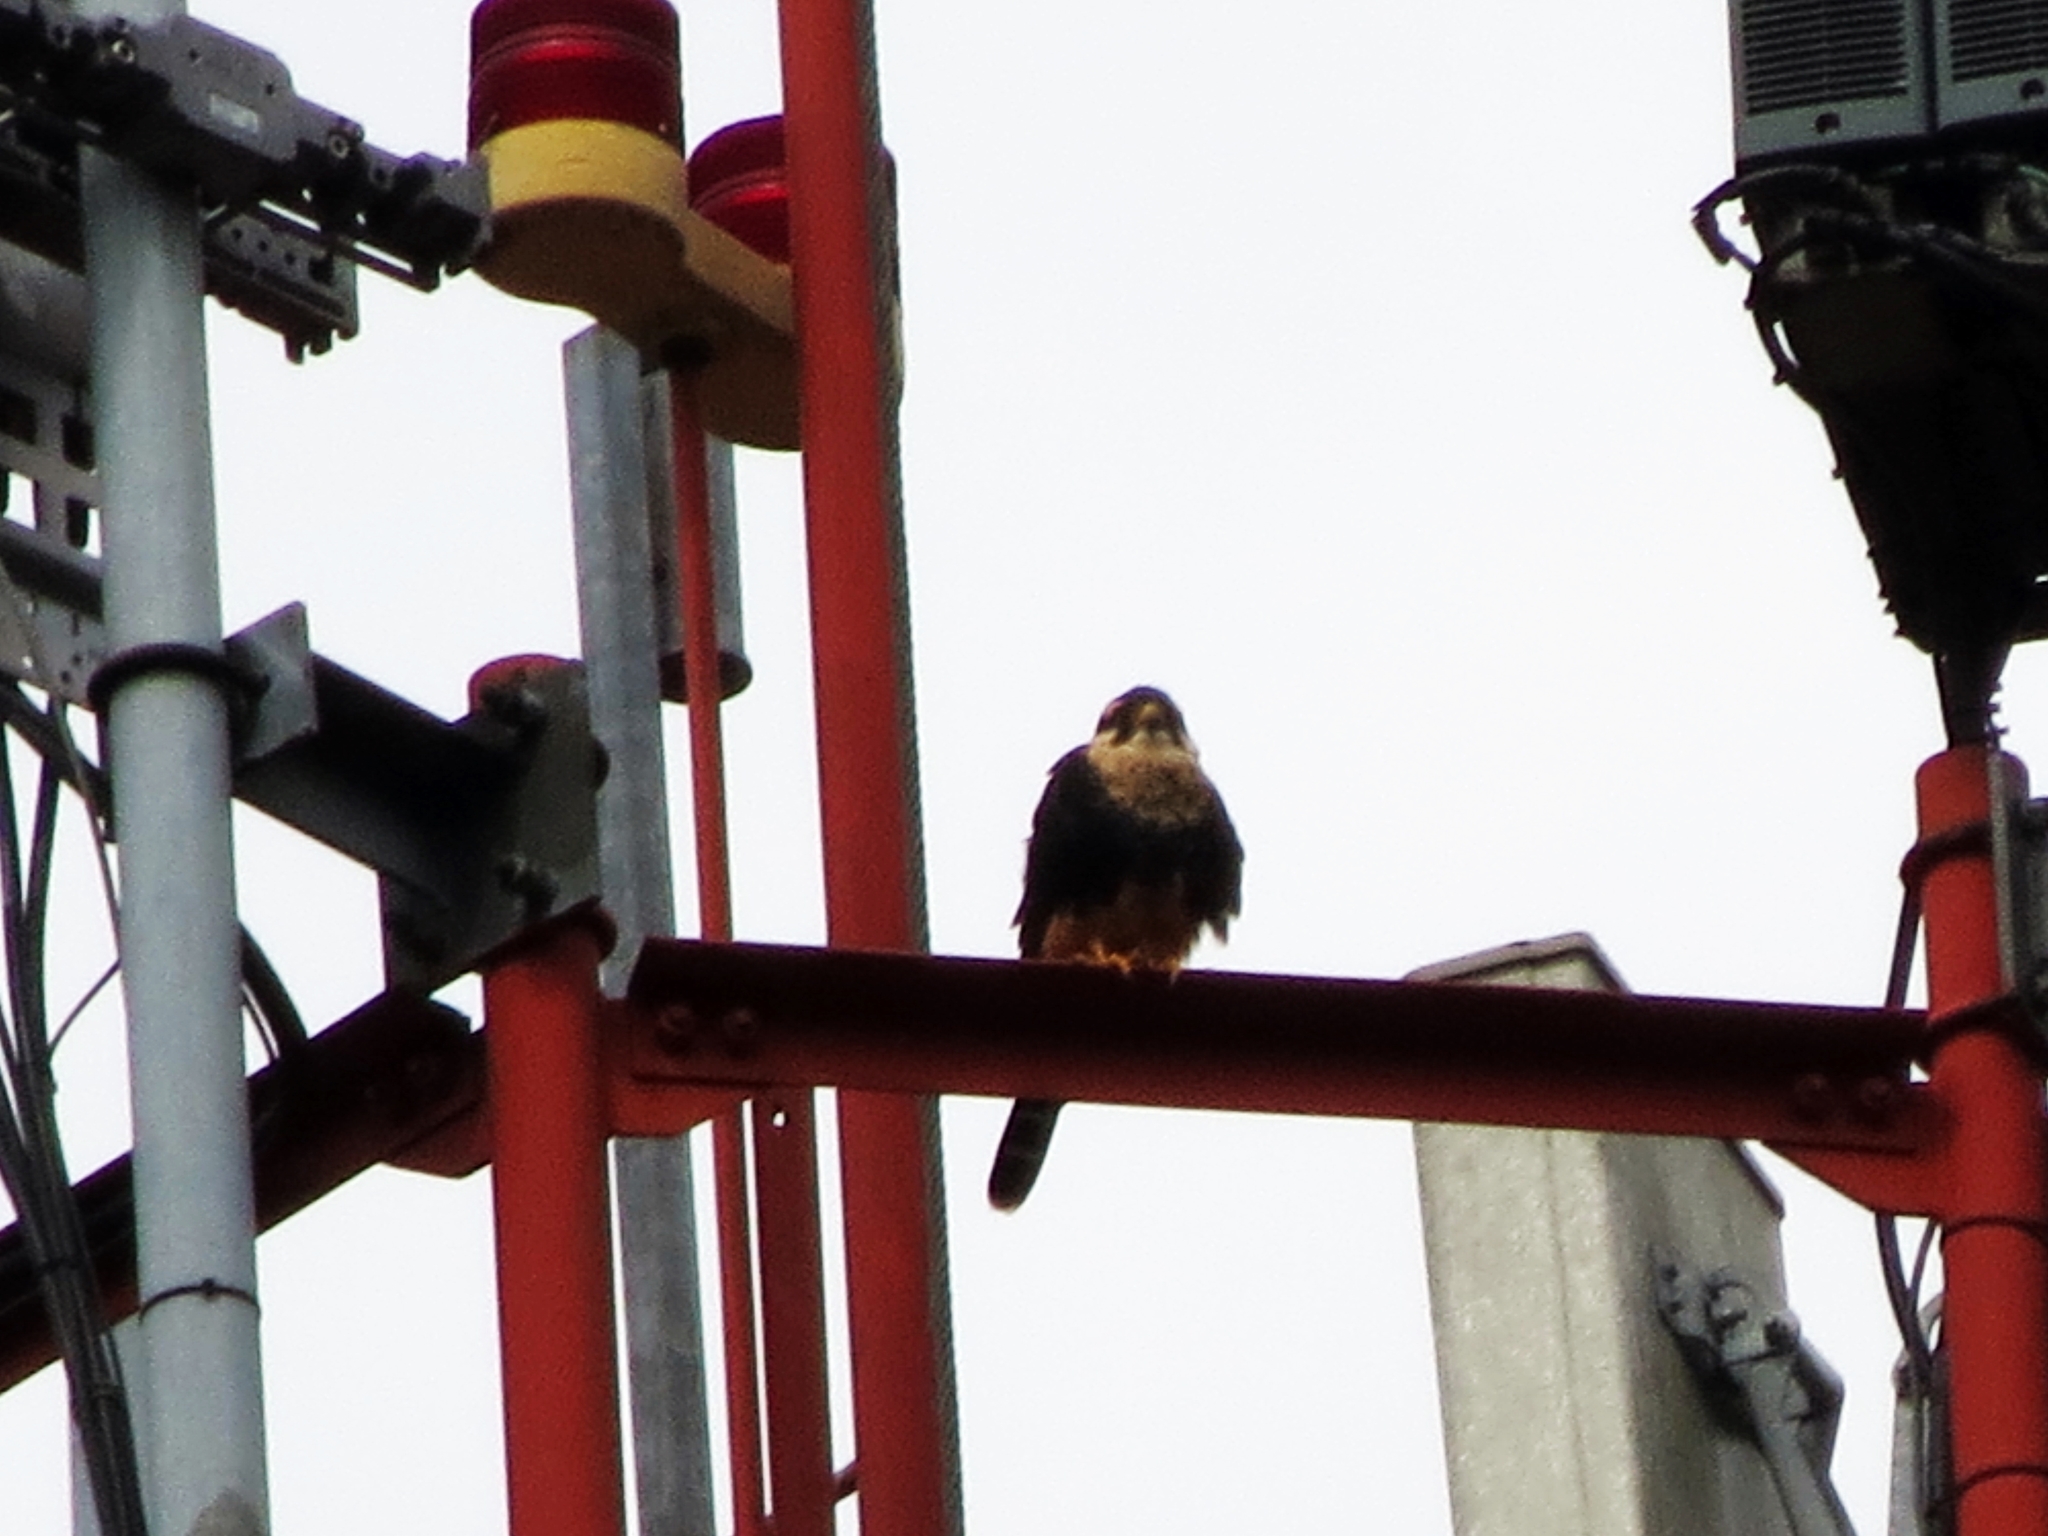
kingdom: Animalia
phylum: Chordata
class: Aves
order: Falconiformes
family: Falconidae
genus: Falco
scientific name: Falco femoralis
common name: Aplomado falcon
